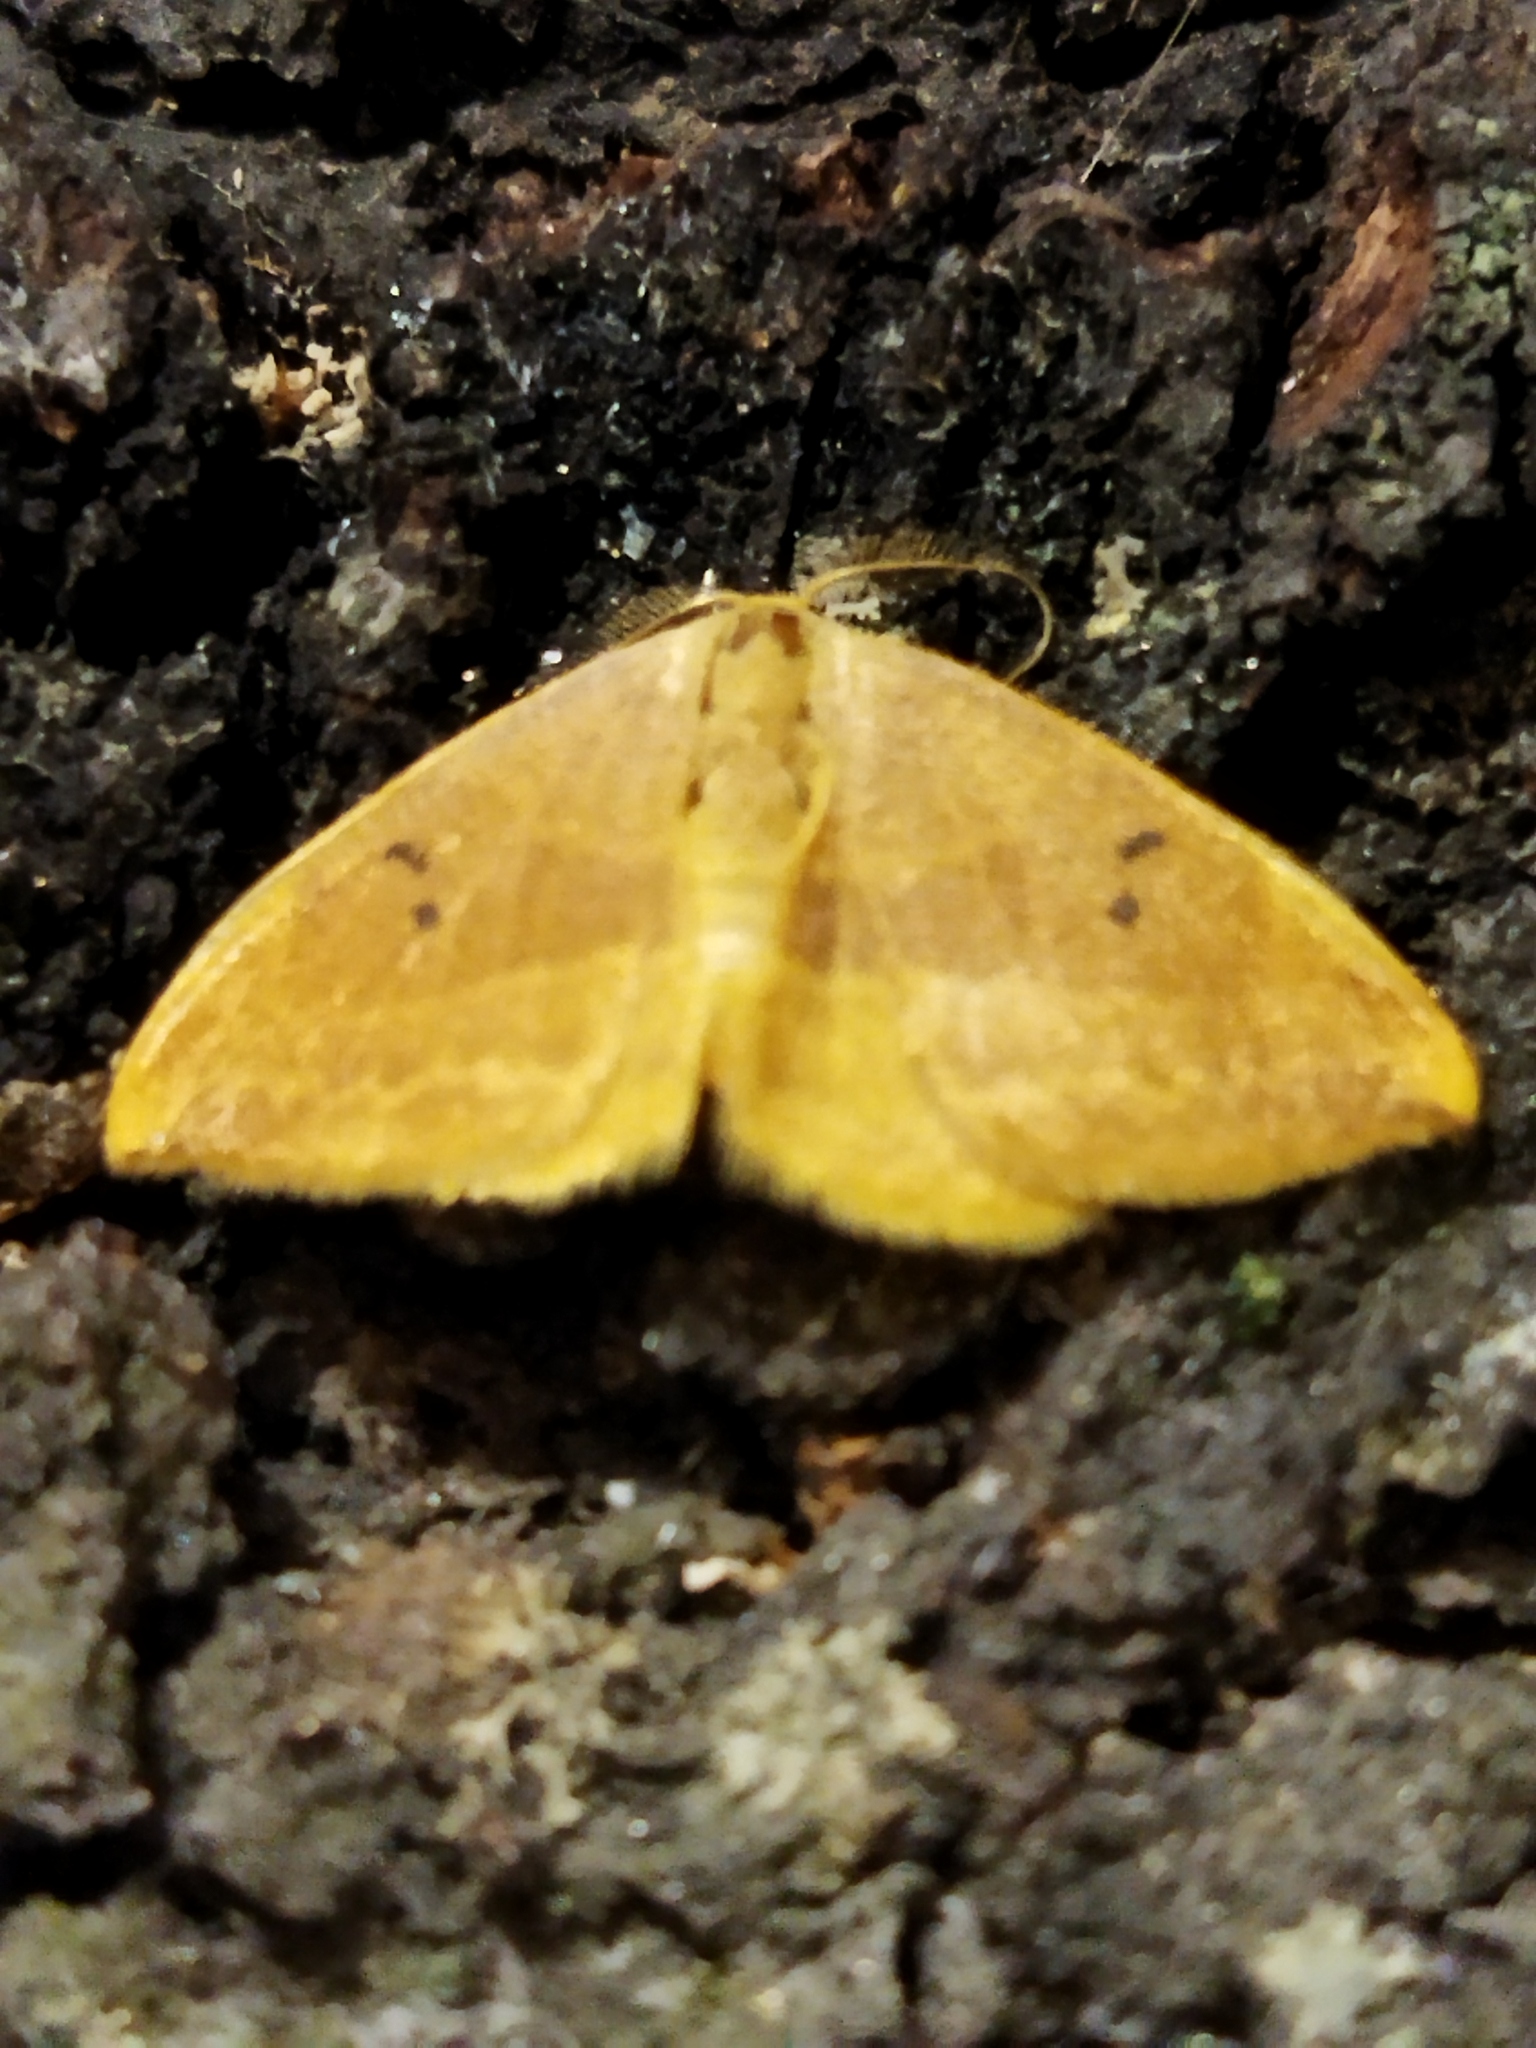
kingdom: Animalia
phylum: Arthropoda
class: Insecta
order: Lepidoptera
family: Drepanidae
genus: Watsonalla
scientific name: Watsonalla binaria
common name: Oak hook-tip
